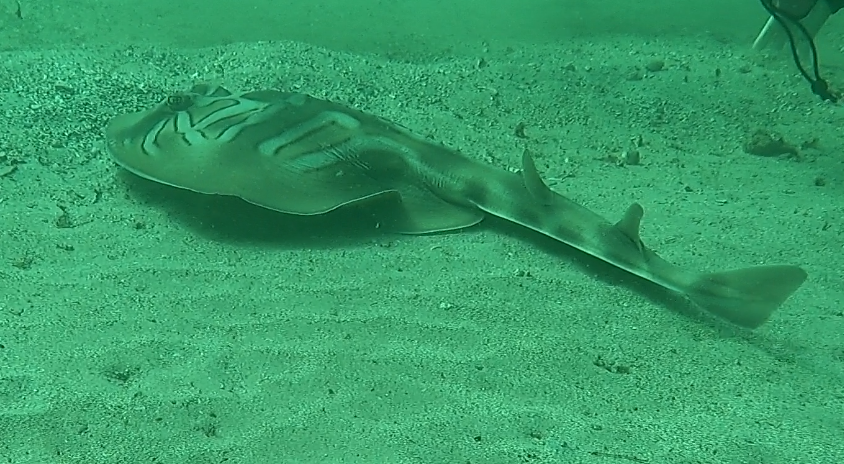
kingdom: Animalia
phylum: Chordata
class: Elasmobranchii
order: Rhinopristiformes
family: Rhinobatidae
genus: Trygonorrhina
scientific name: Trygonorrhina fasciata
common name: Southern fiddler
